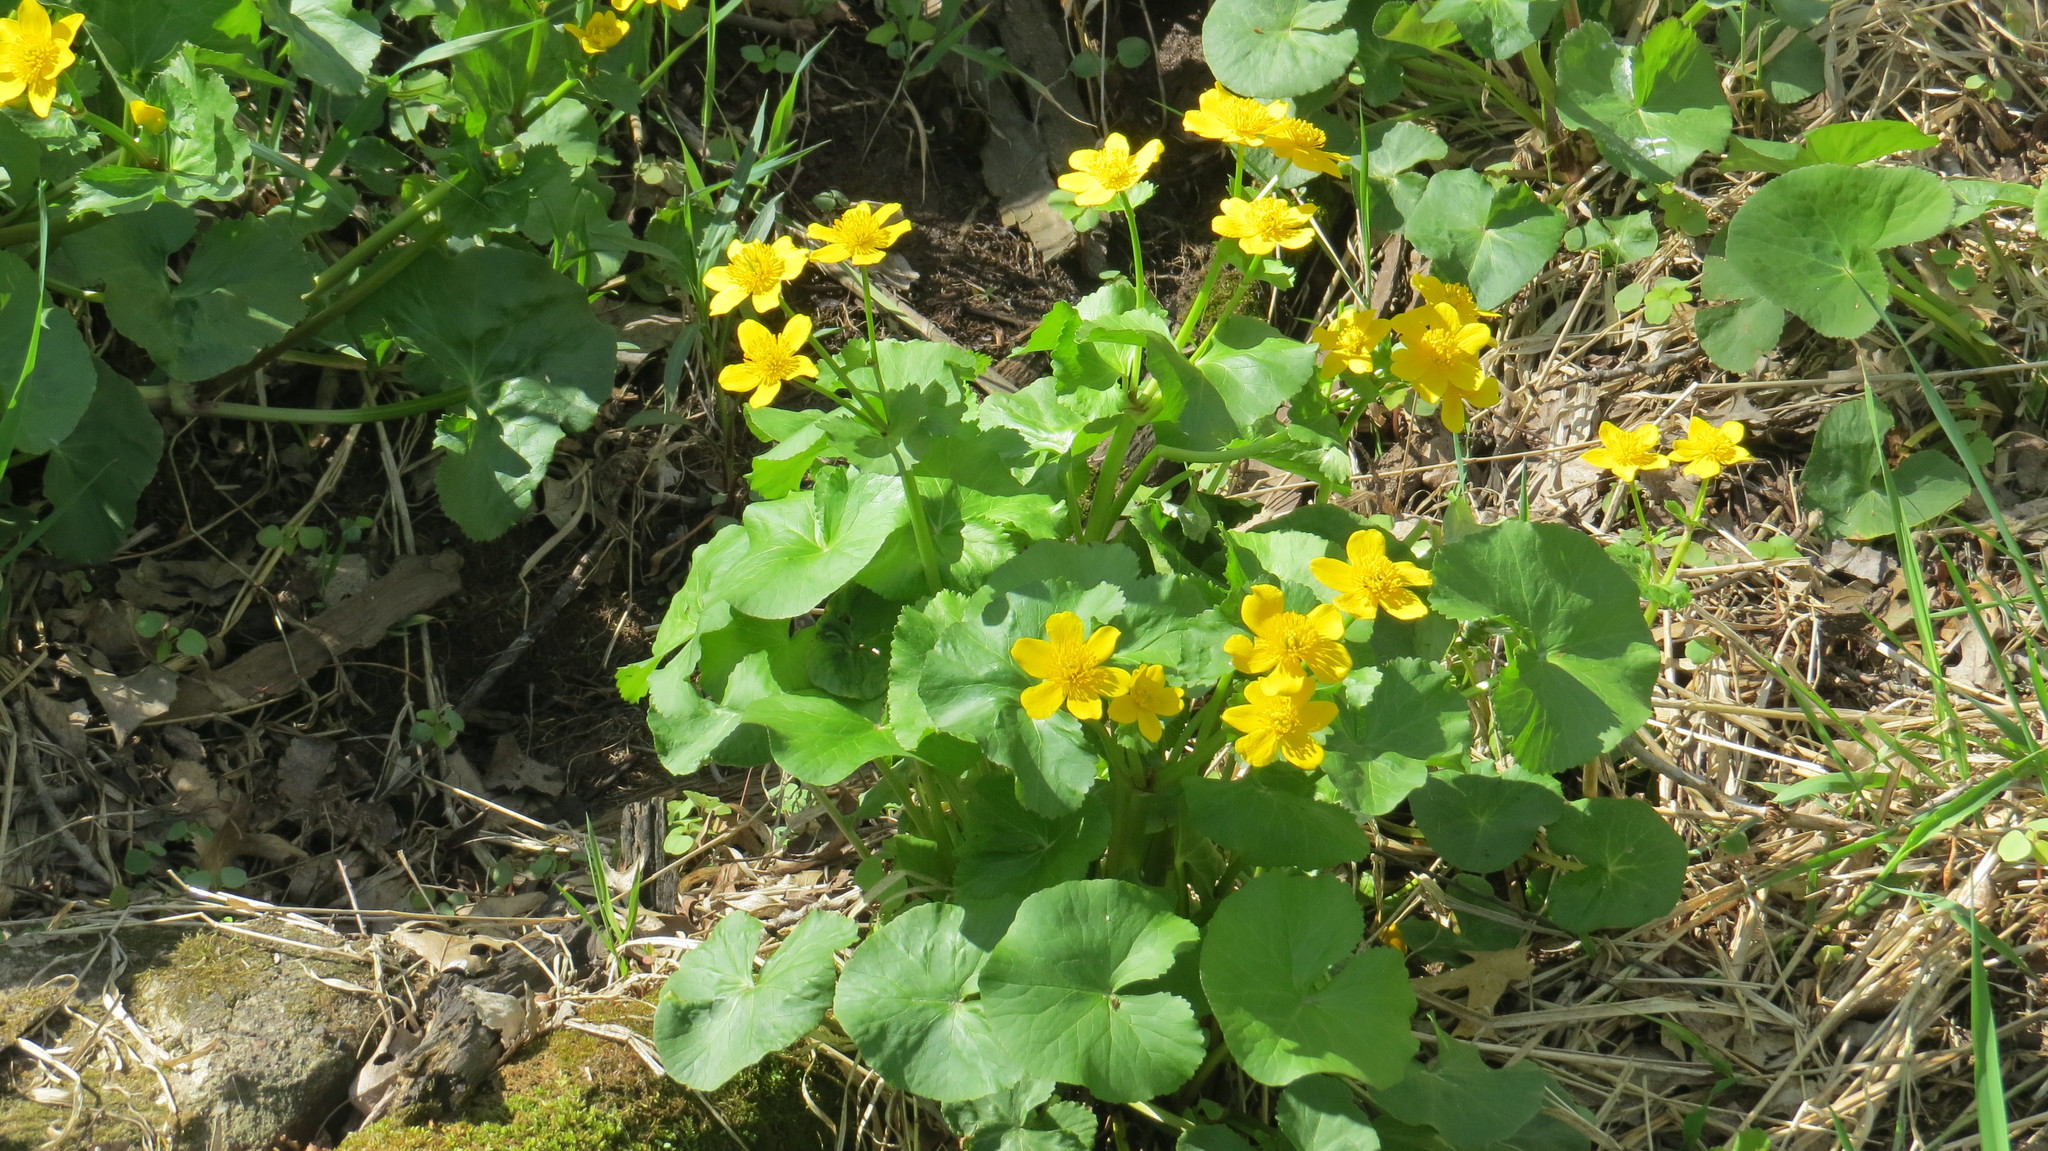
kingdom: Plantae
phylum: Tracheophyta
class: Magnoliopsida
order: Ranunculales
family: Ranunculaceae
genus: Caltha
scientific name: Caltha palustris
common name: Marsh marigold
